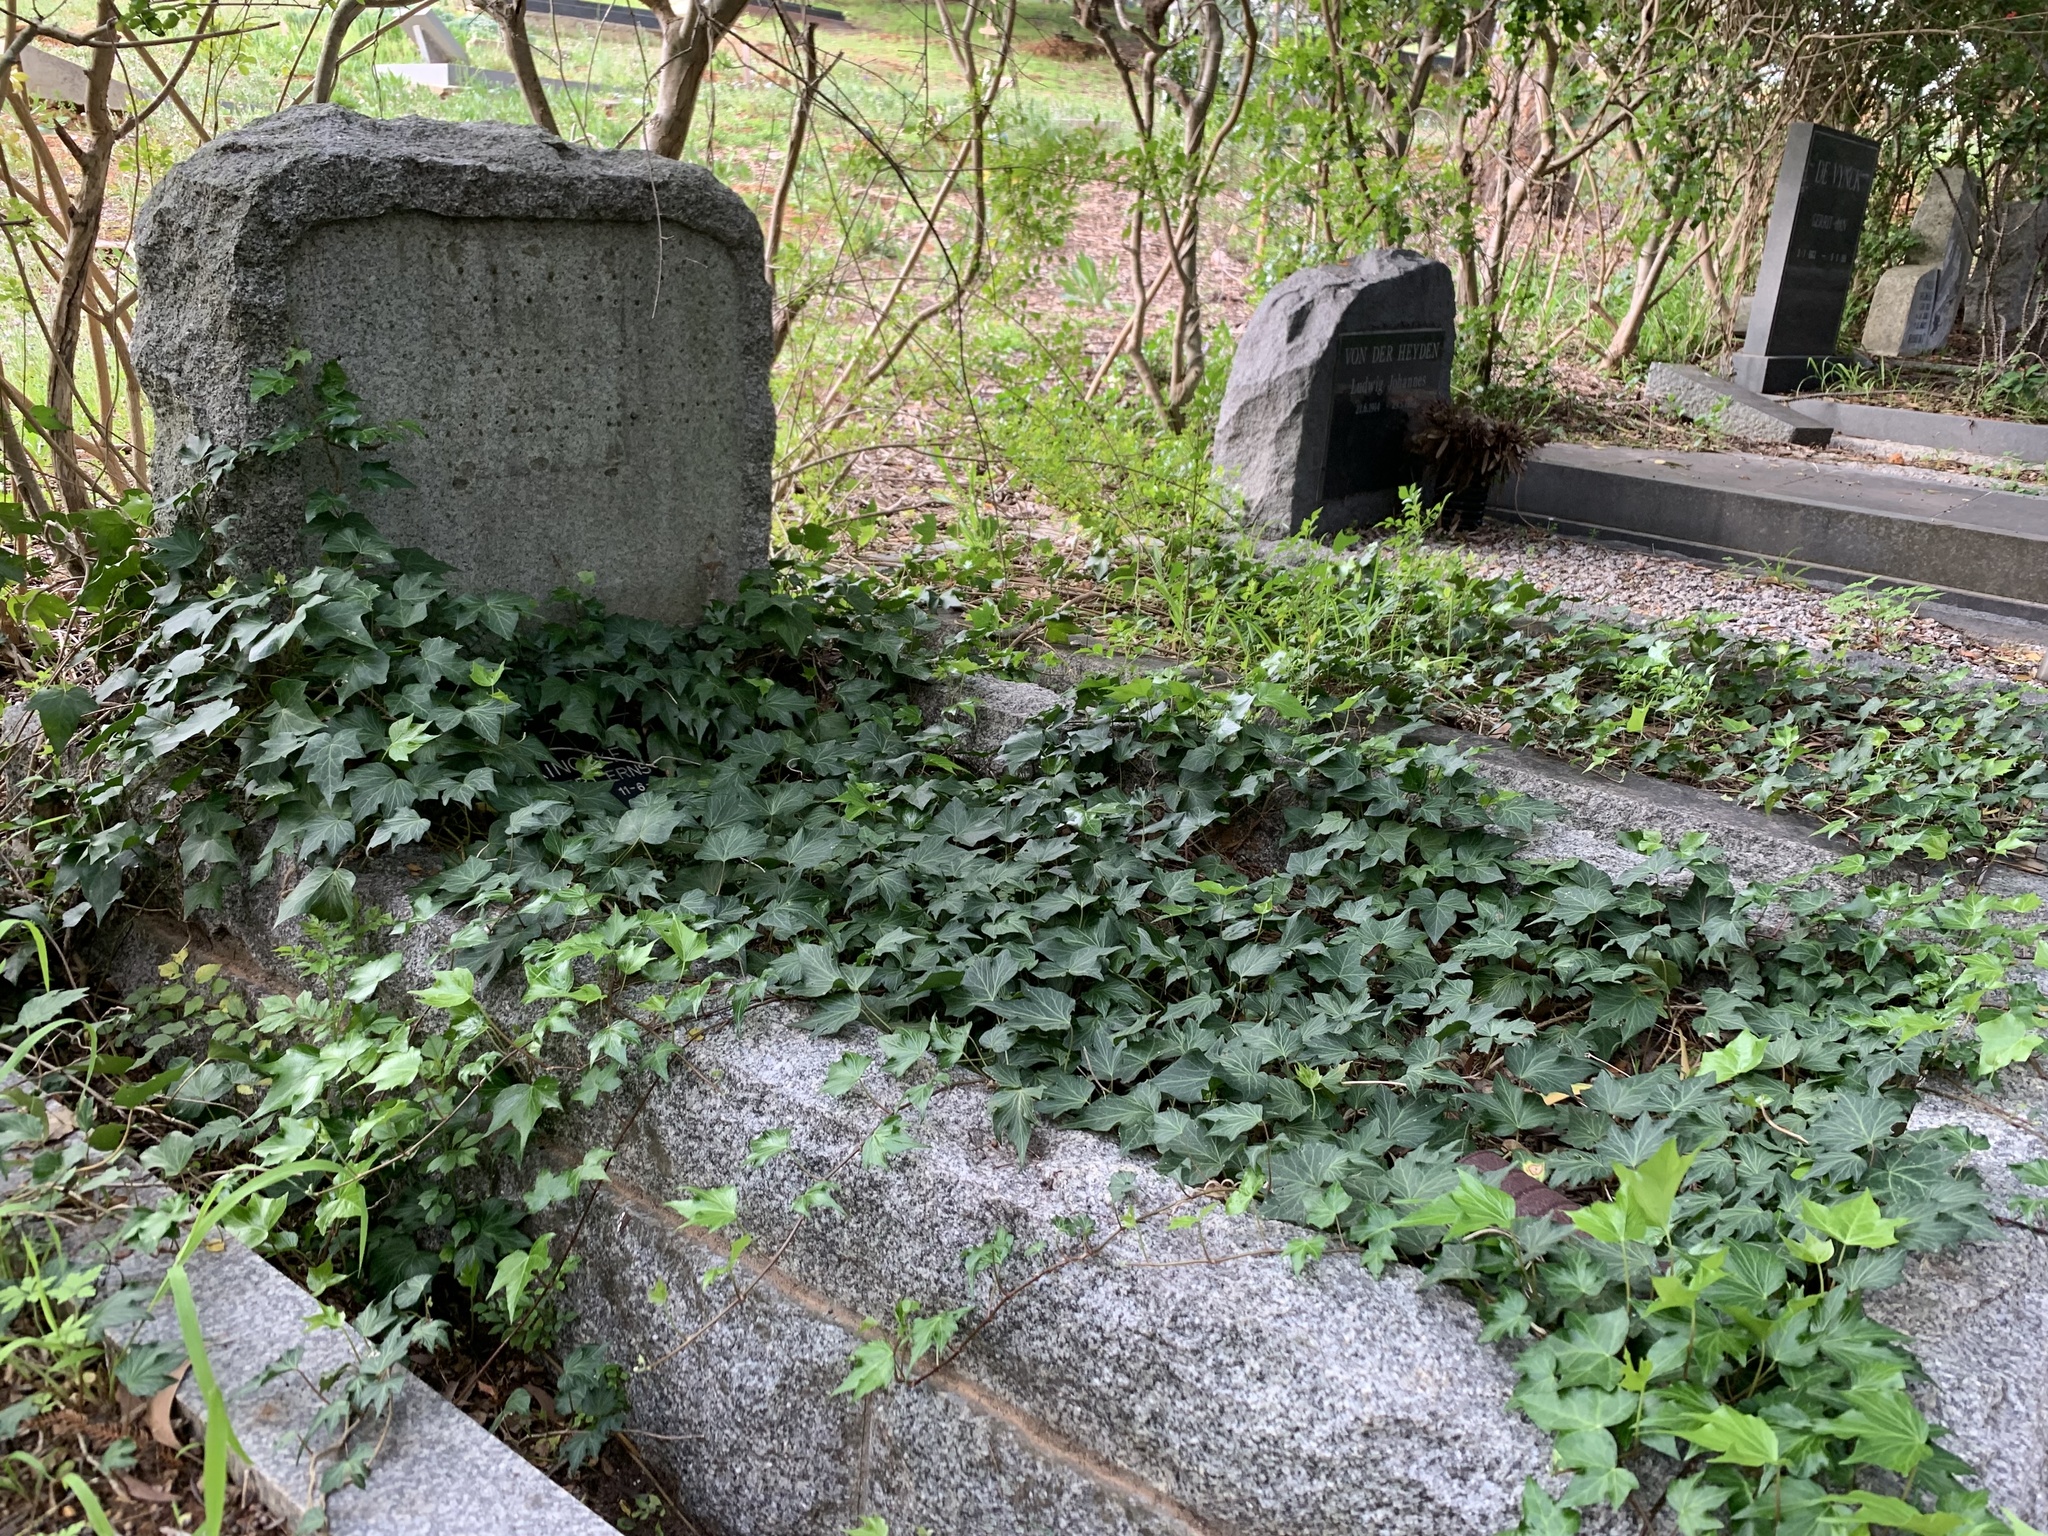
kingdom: Plantae
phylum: Tracheophyta
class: Magnoliopsida
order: Apiales
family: Araliaceae
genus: Hedera
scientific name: Hedera helix
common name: Ivy
